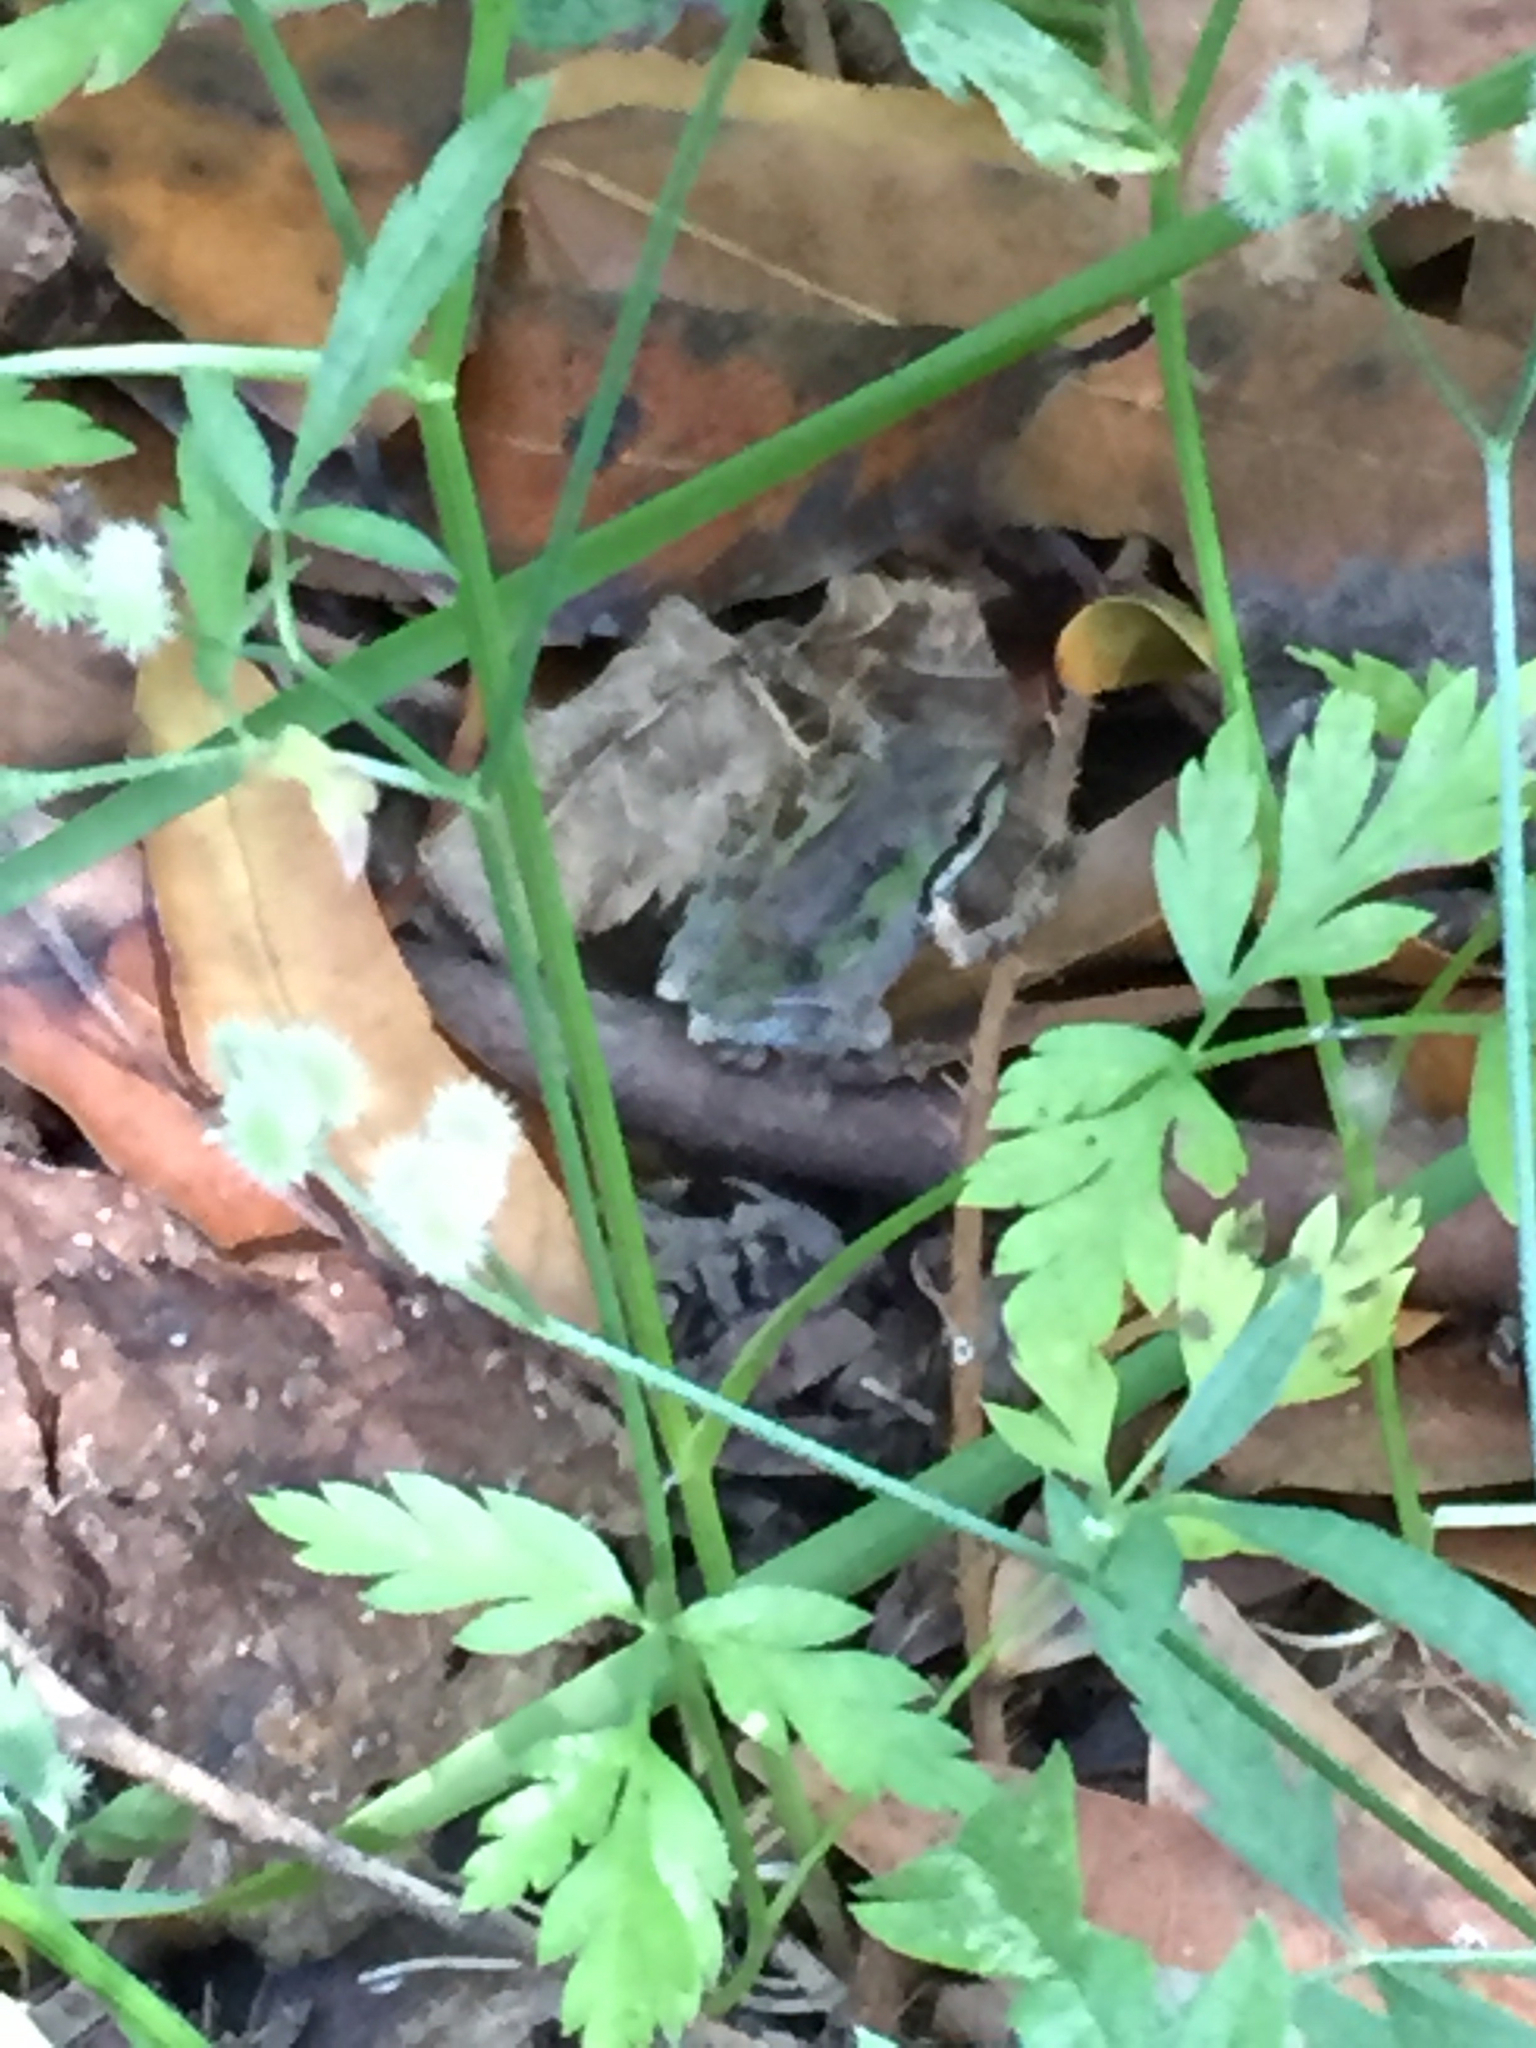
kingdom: Animalia
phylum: Chordata
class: Amphibia
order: Anura
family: Hylidae
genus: Pseudacris
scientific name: Pseudacris regilla
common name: Pacific chorus frog
